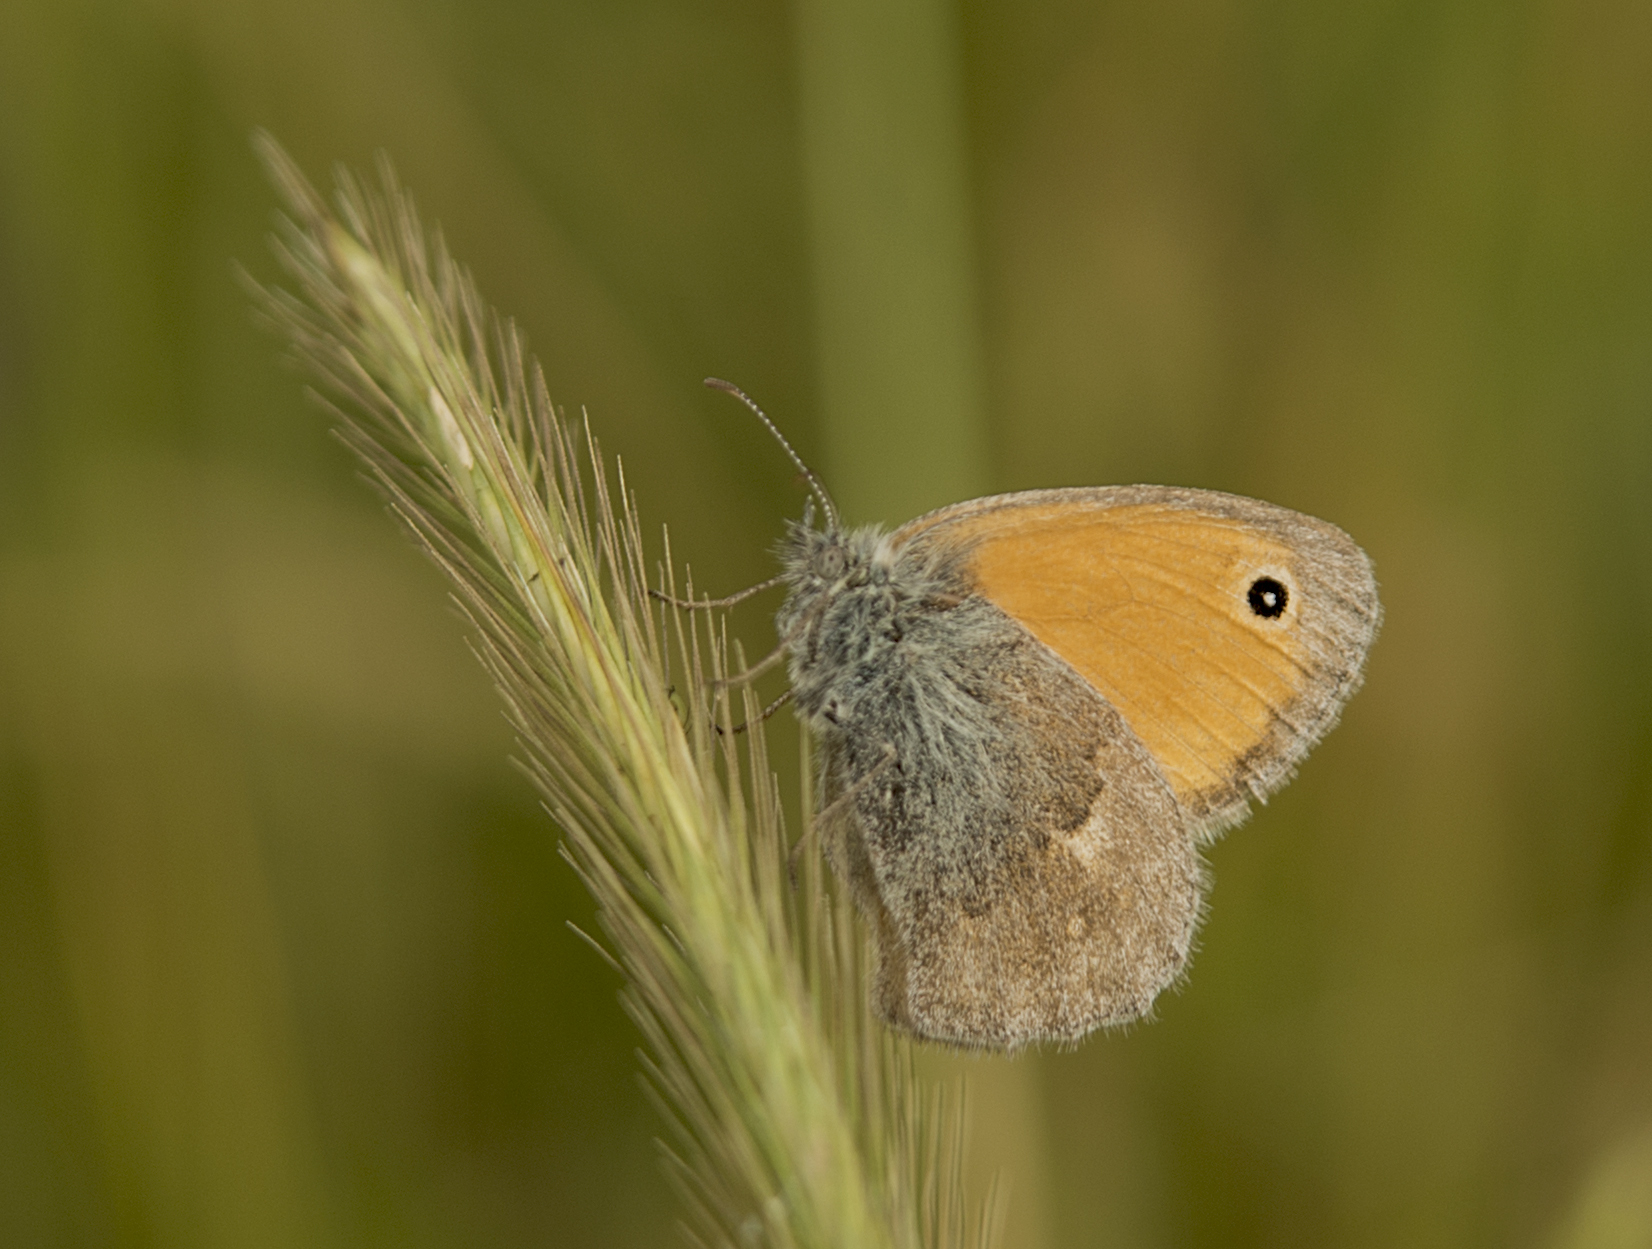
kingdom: Animalia
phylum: Arthropoda
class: Insecta
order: Lepidoptera
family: Nymphalidae
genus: Coenonympha
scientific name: Coenonympha pamphilus
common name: Small heath
